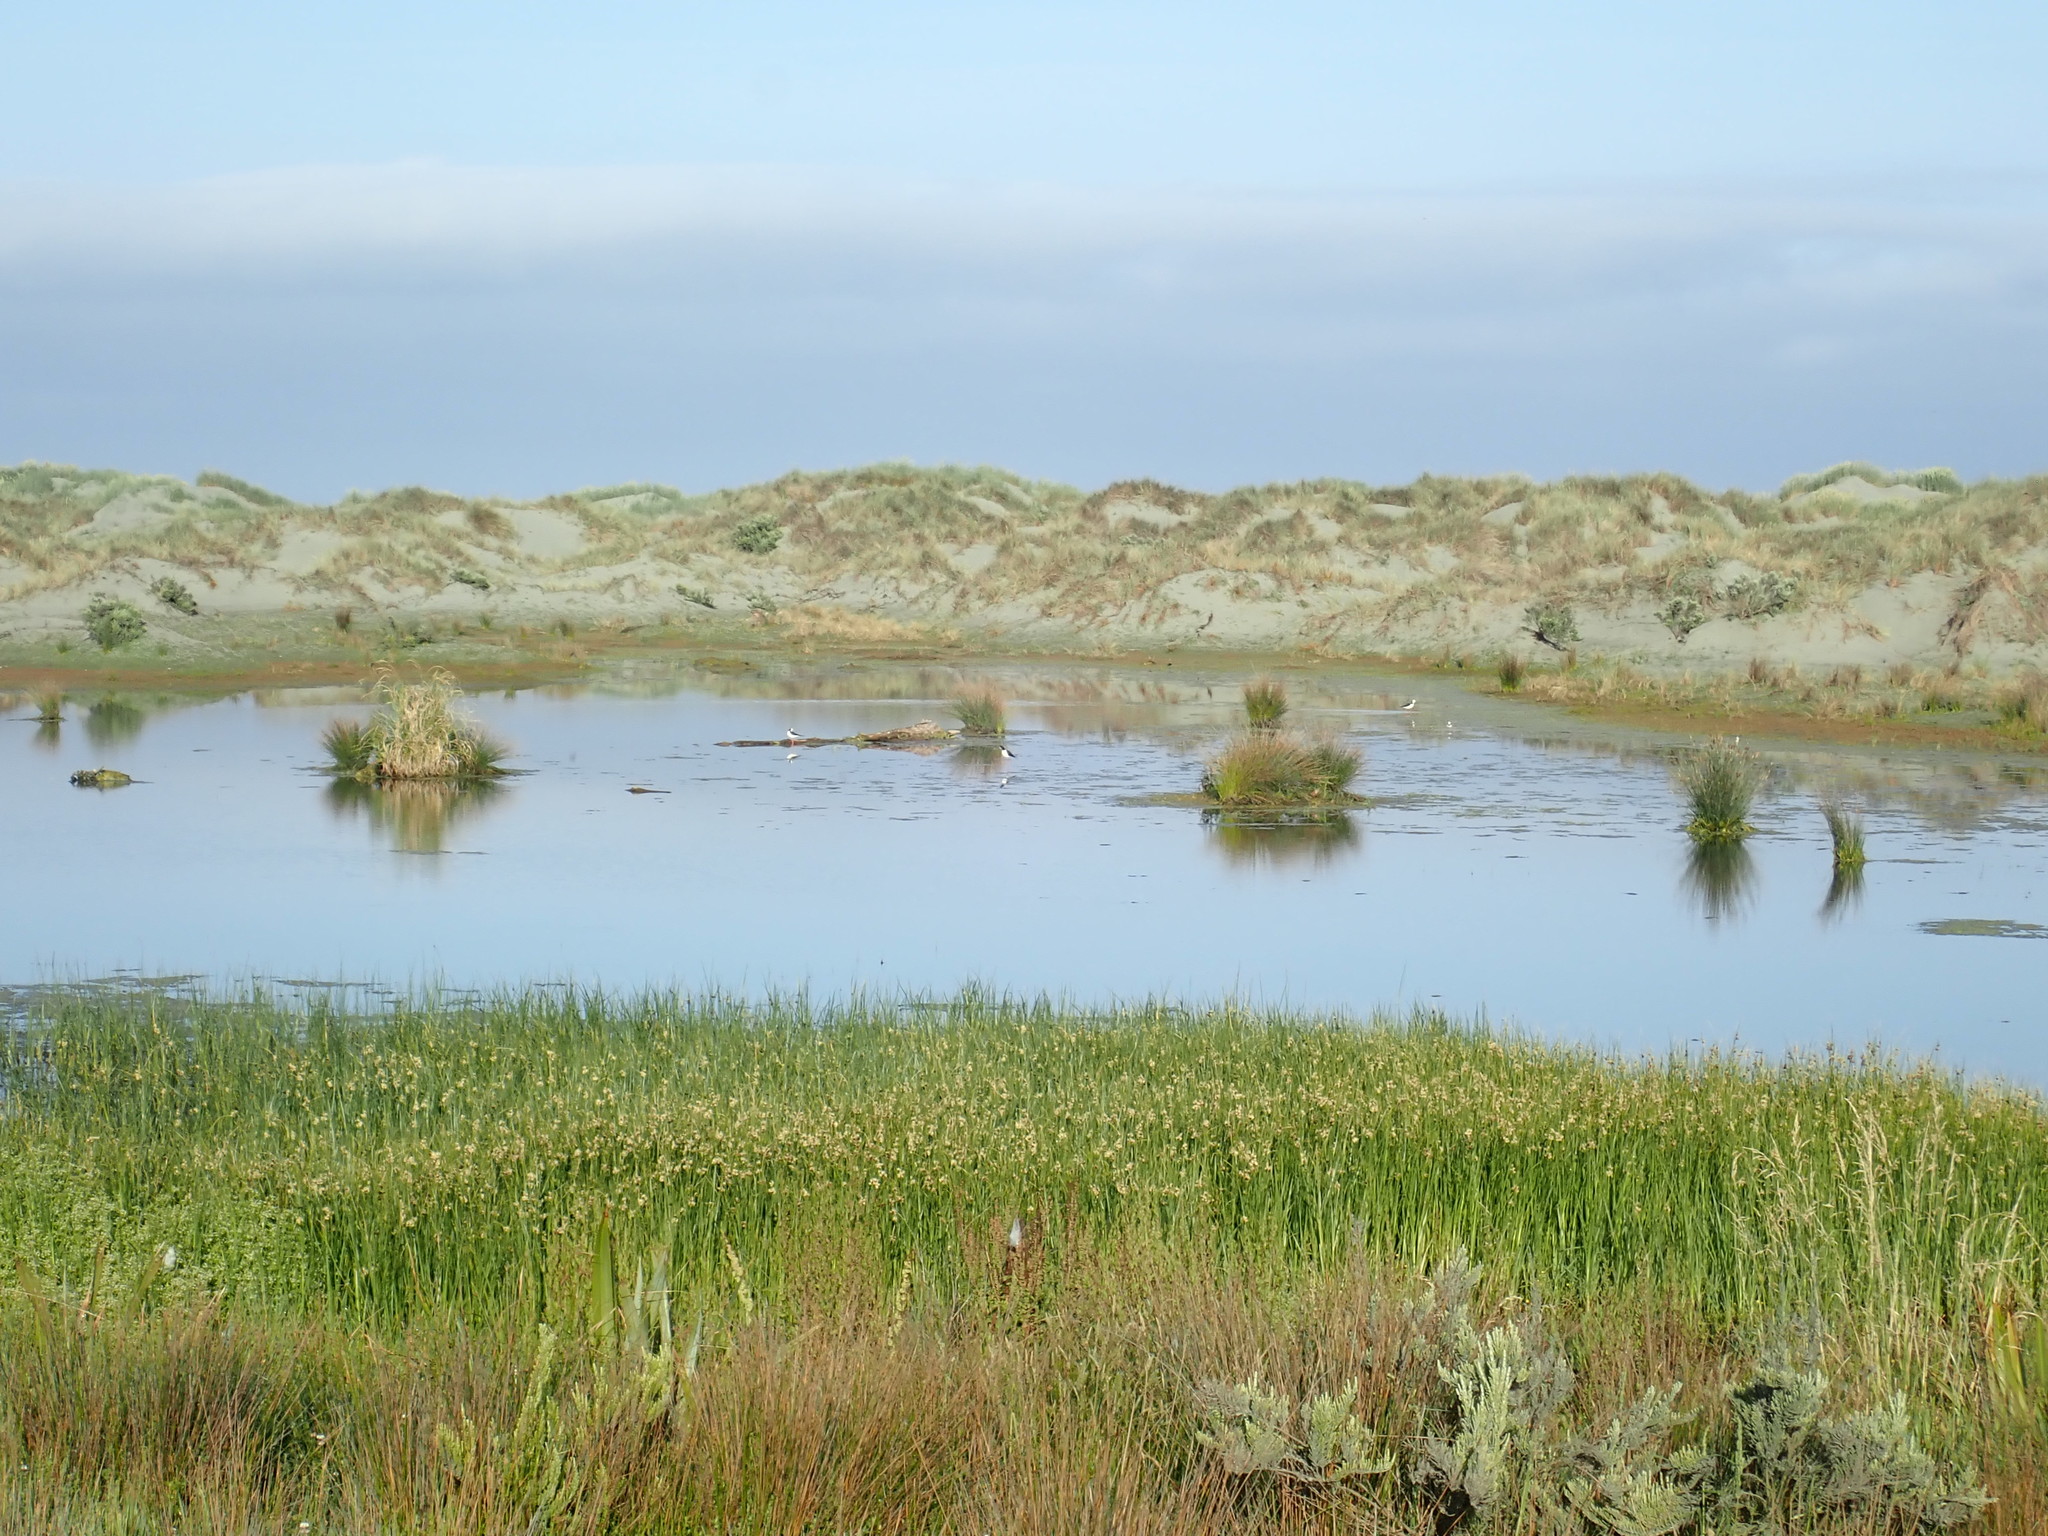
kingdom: Animalia
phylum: Chordata
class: Aves
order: Charadriiformes
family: Recurvirostridae
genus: Himantopus
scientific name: Himantopus leucocephalus
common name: White-headed stilt
